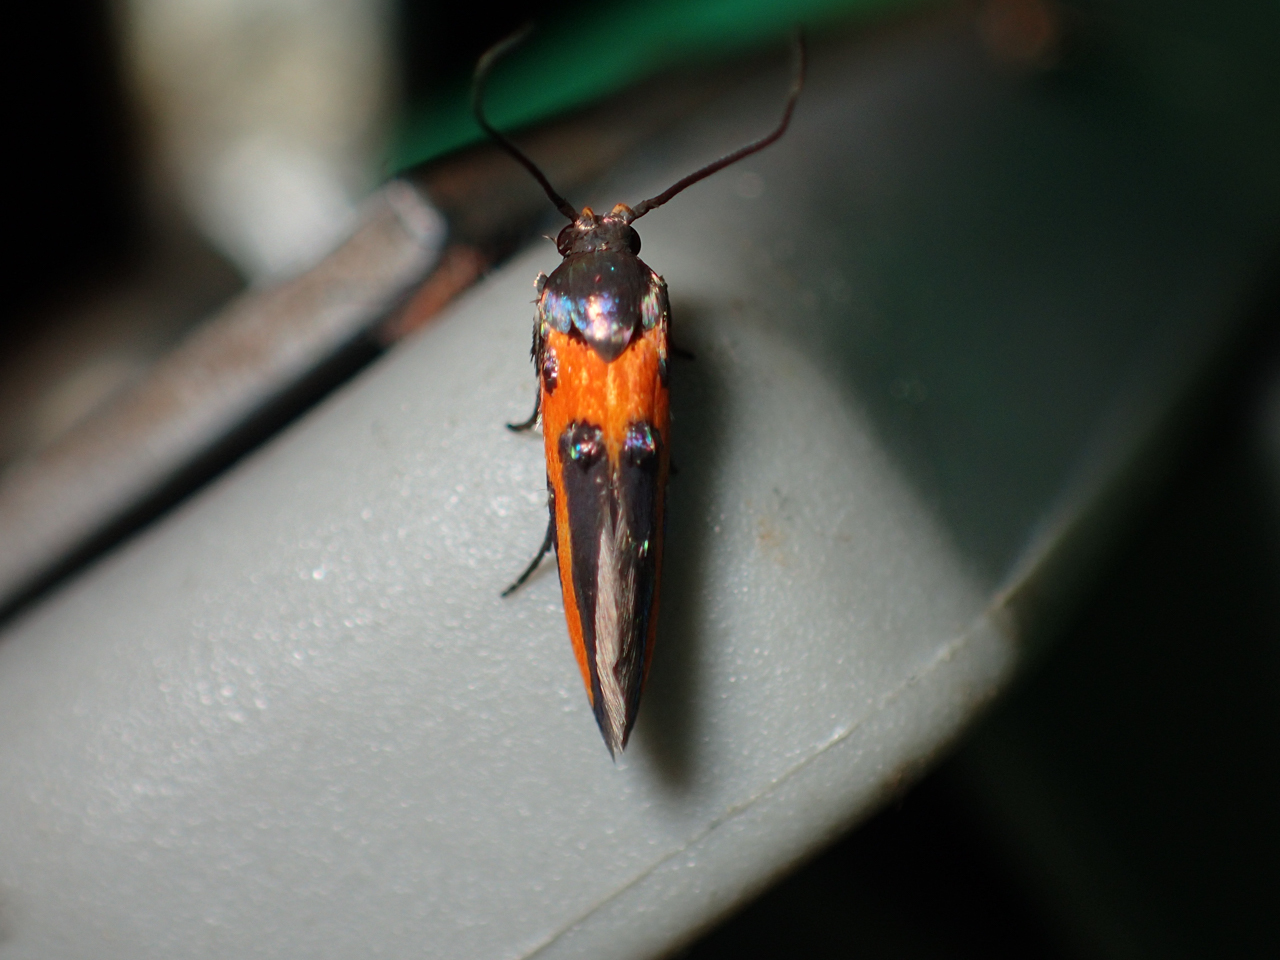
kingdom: Animalia
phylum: Arthropoda
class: Insecta
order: Lepidoptera
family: Cosmopterigidae
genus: Euclemensia
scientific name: Euclemensia bassettella
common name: Kermes scale moth
